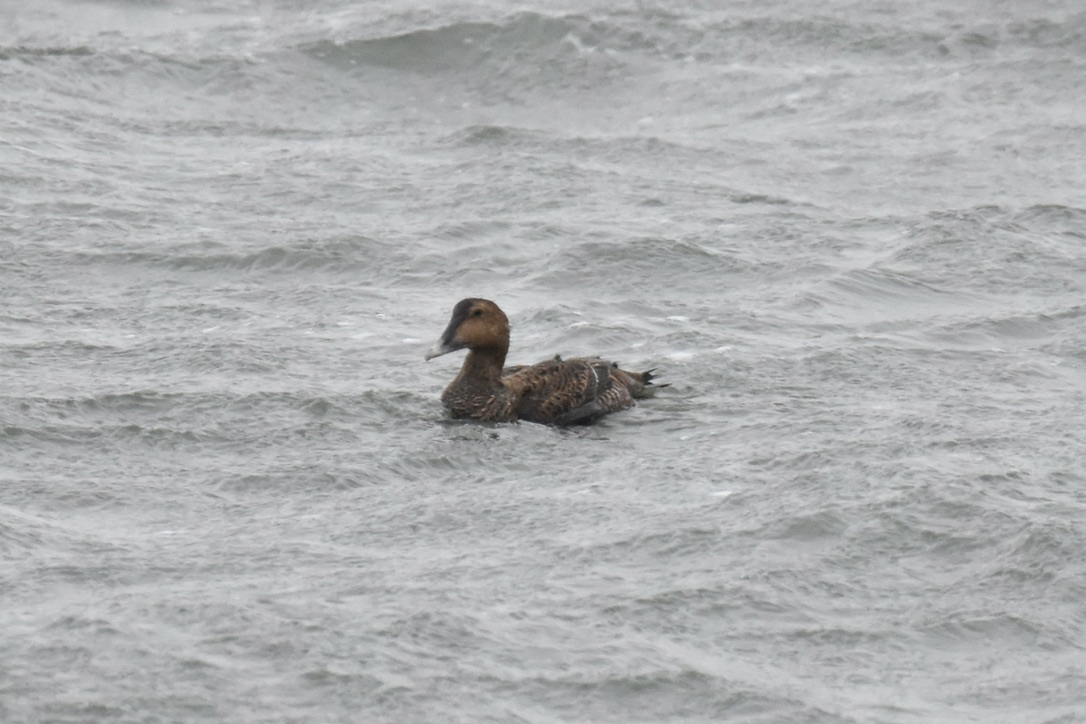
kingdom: Animalia
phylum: Chordata
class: Aves
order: Anseriformes
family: Anatidae
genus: Somateria
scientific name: Somateria mollissima
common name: Common eider
